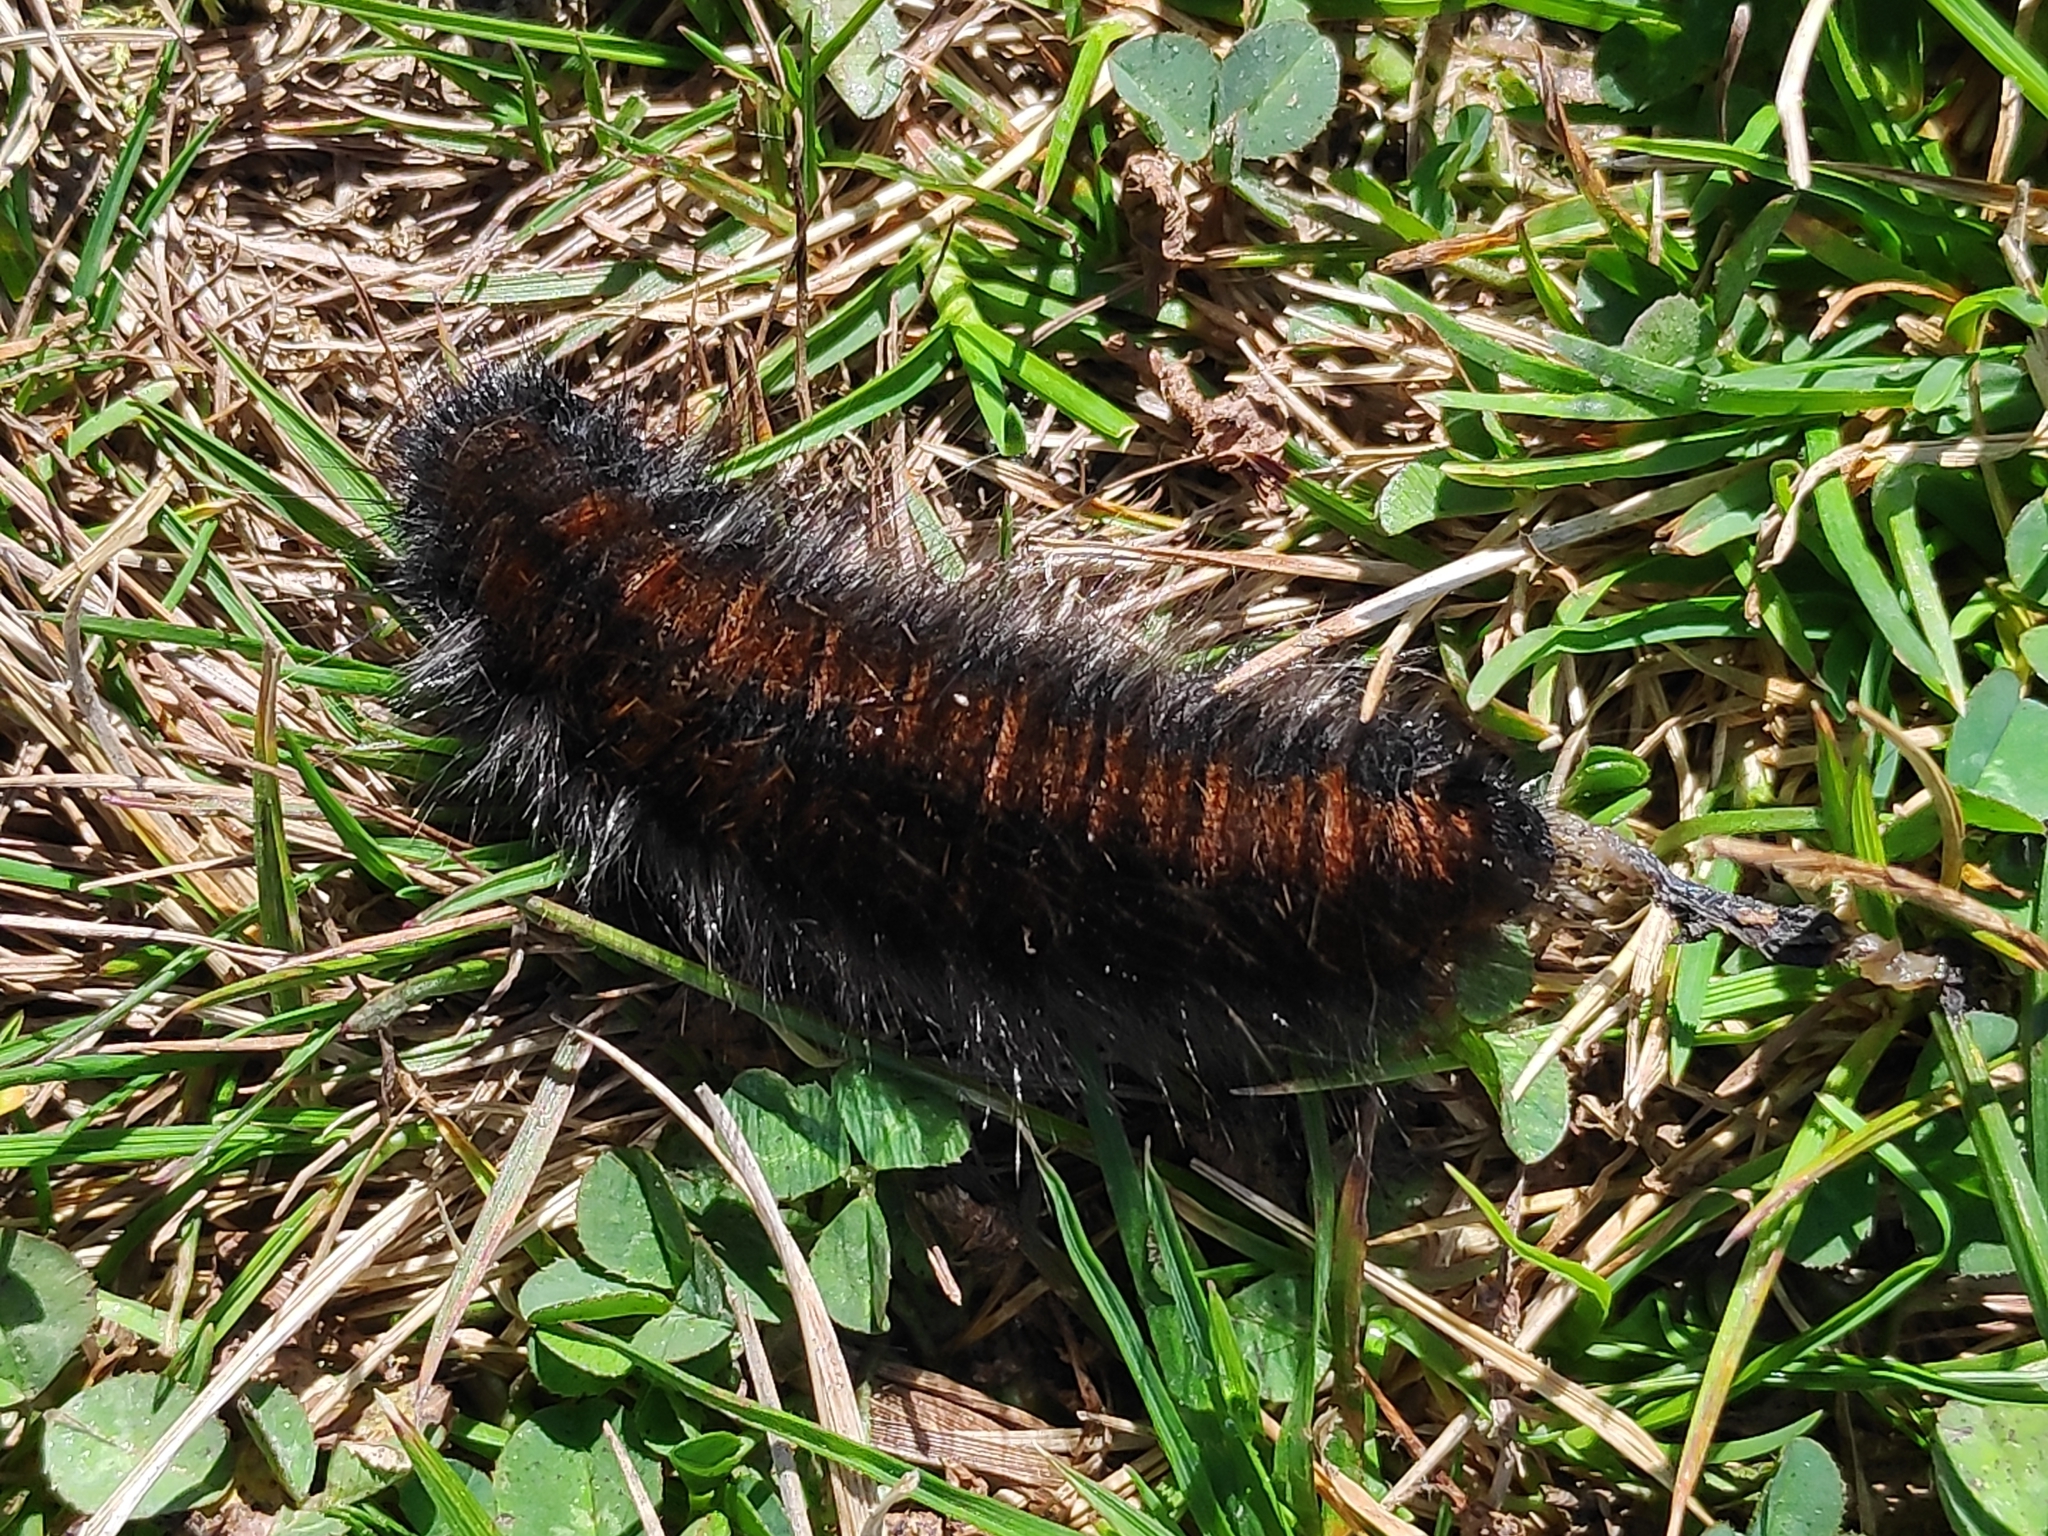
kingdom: Animalia
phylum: Arthropoda
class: Insecta
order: Lepidoptera
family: Lasiocampidae
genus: Macrothylacia
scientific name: Macrothylacia rubi
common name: Fox moth
